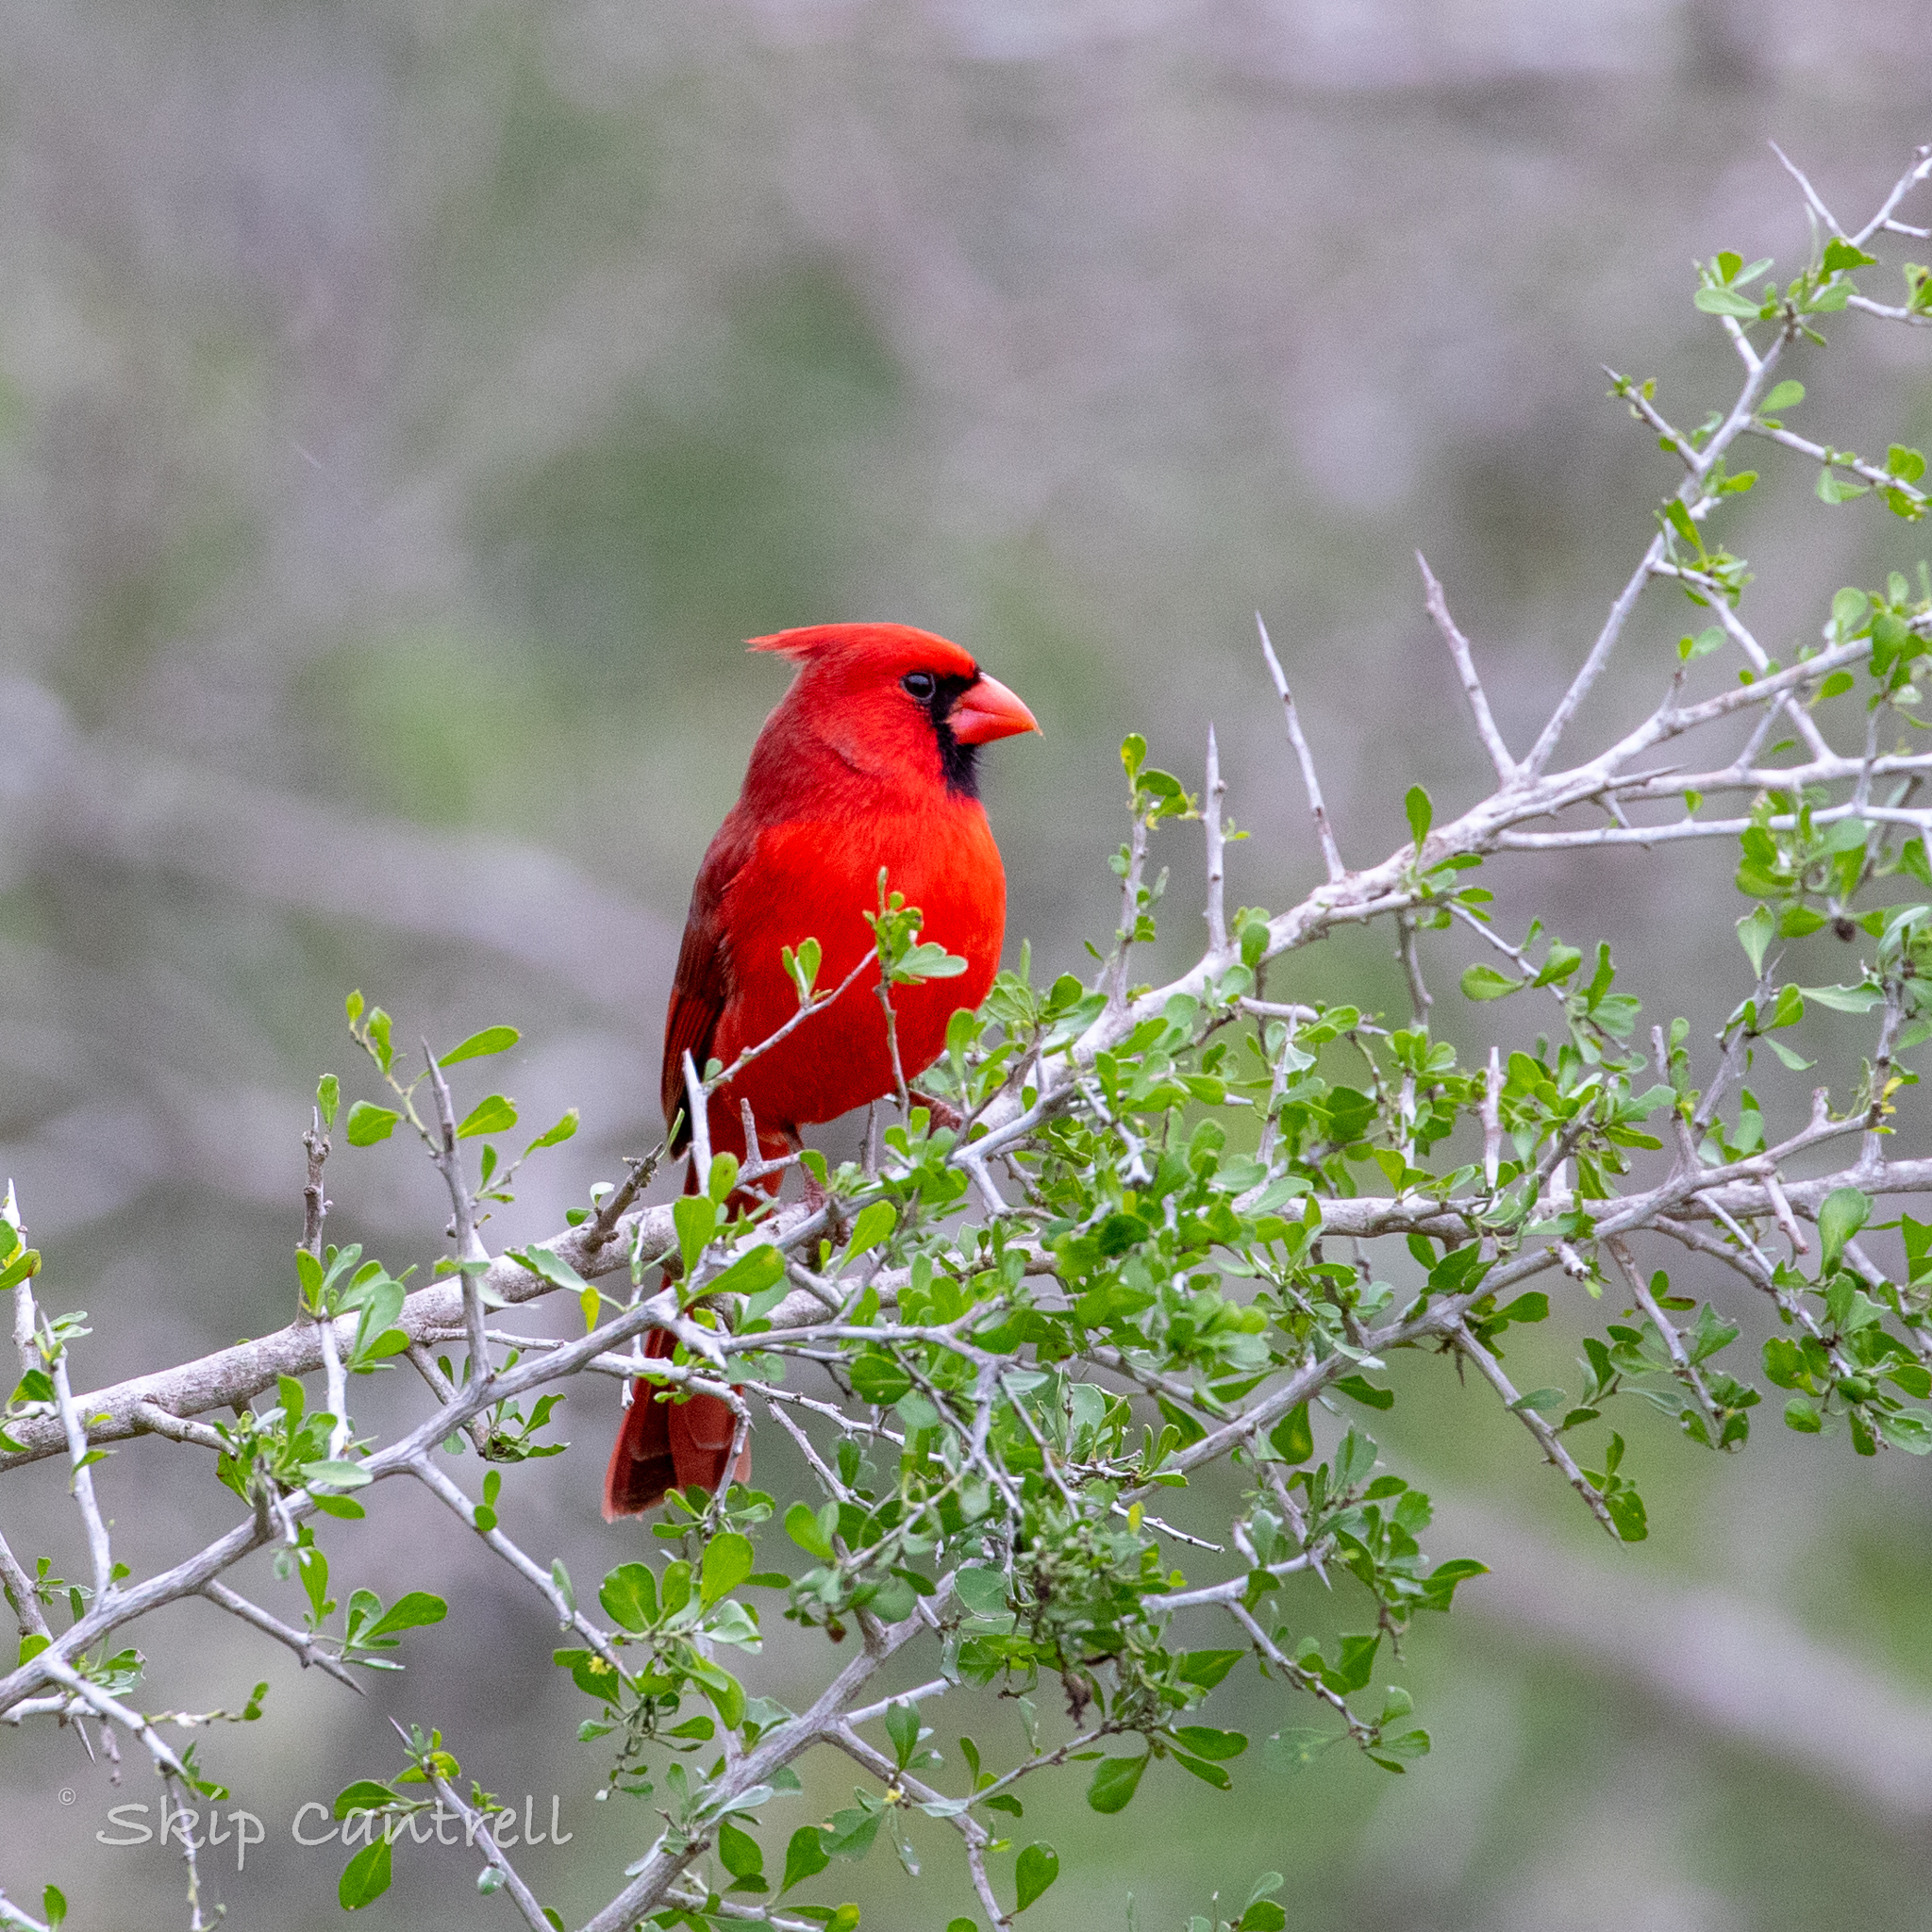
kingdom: Animalia
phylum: Chordata
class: Aves
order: Passeriformes
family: Cardinalidae
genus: Cardinalis
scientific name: Cardinalis cardinalis
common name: Northern cardinal
